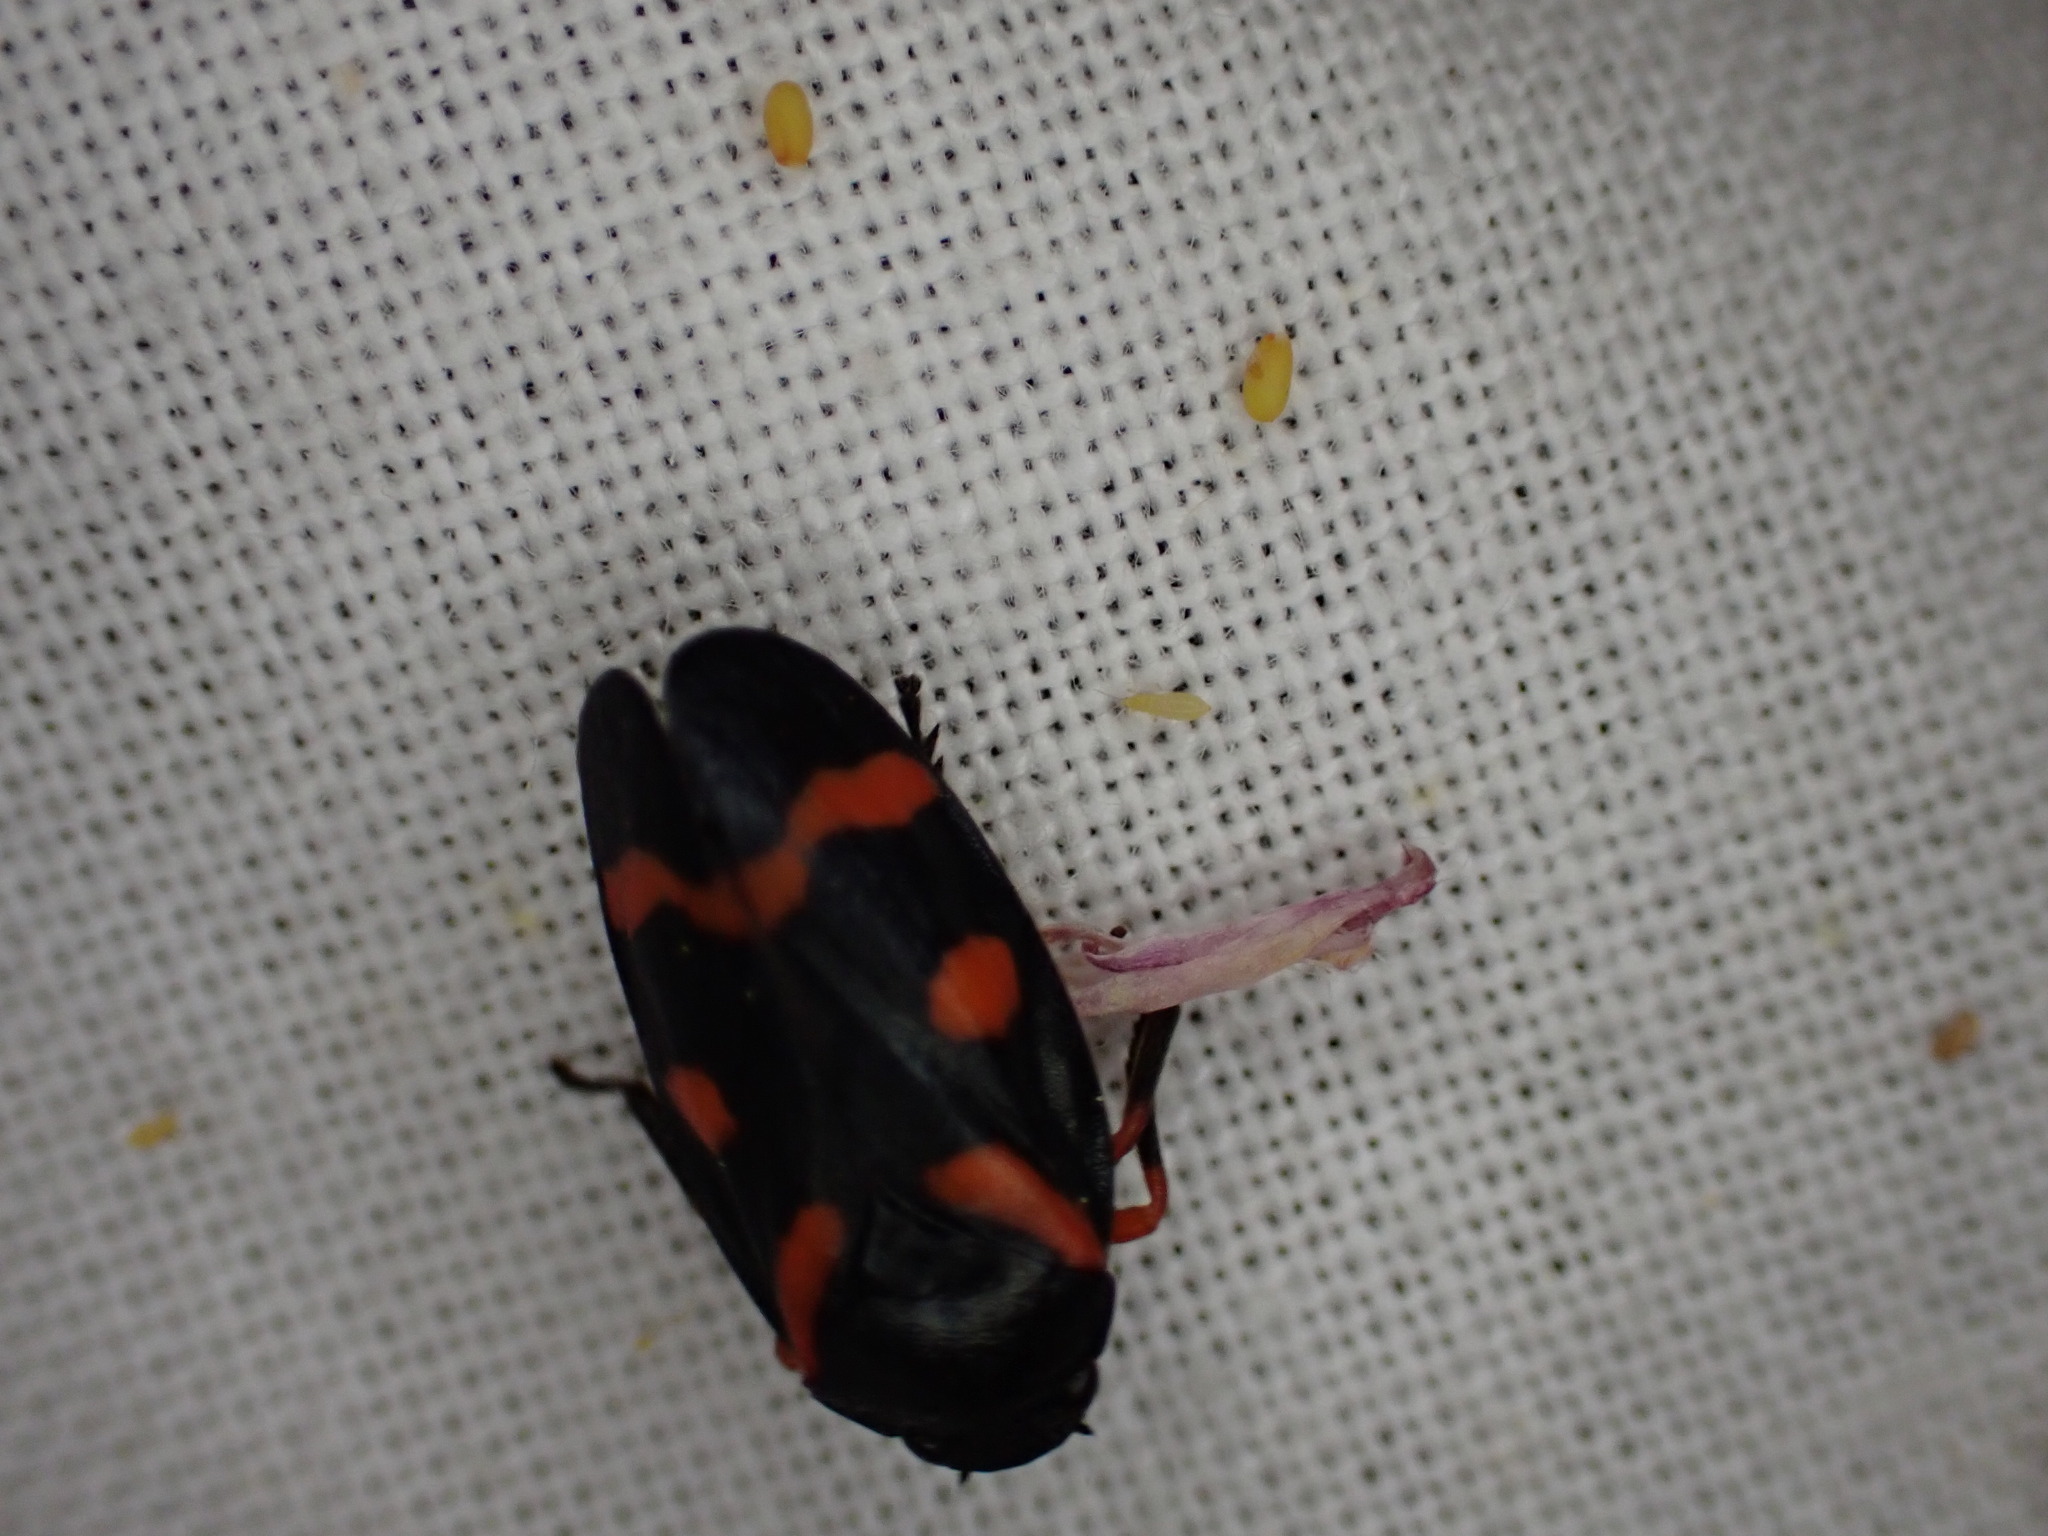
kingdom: Animalia
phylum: Arthropoda
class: Insecta
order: Hemiptera
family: Cercopidae
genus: Cercopis
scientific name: Cercopis intermedia
